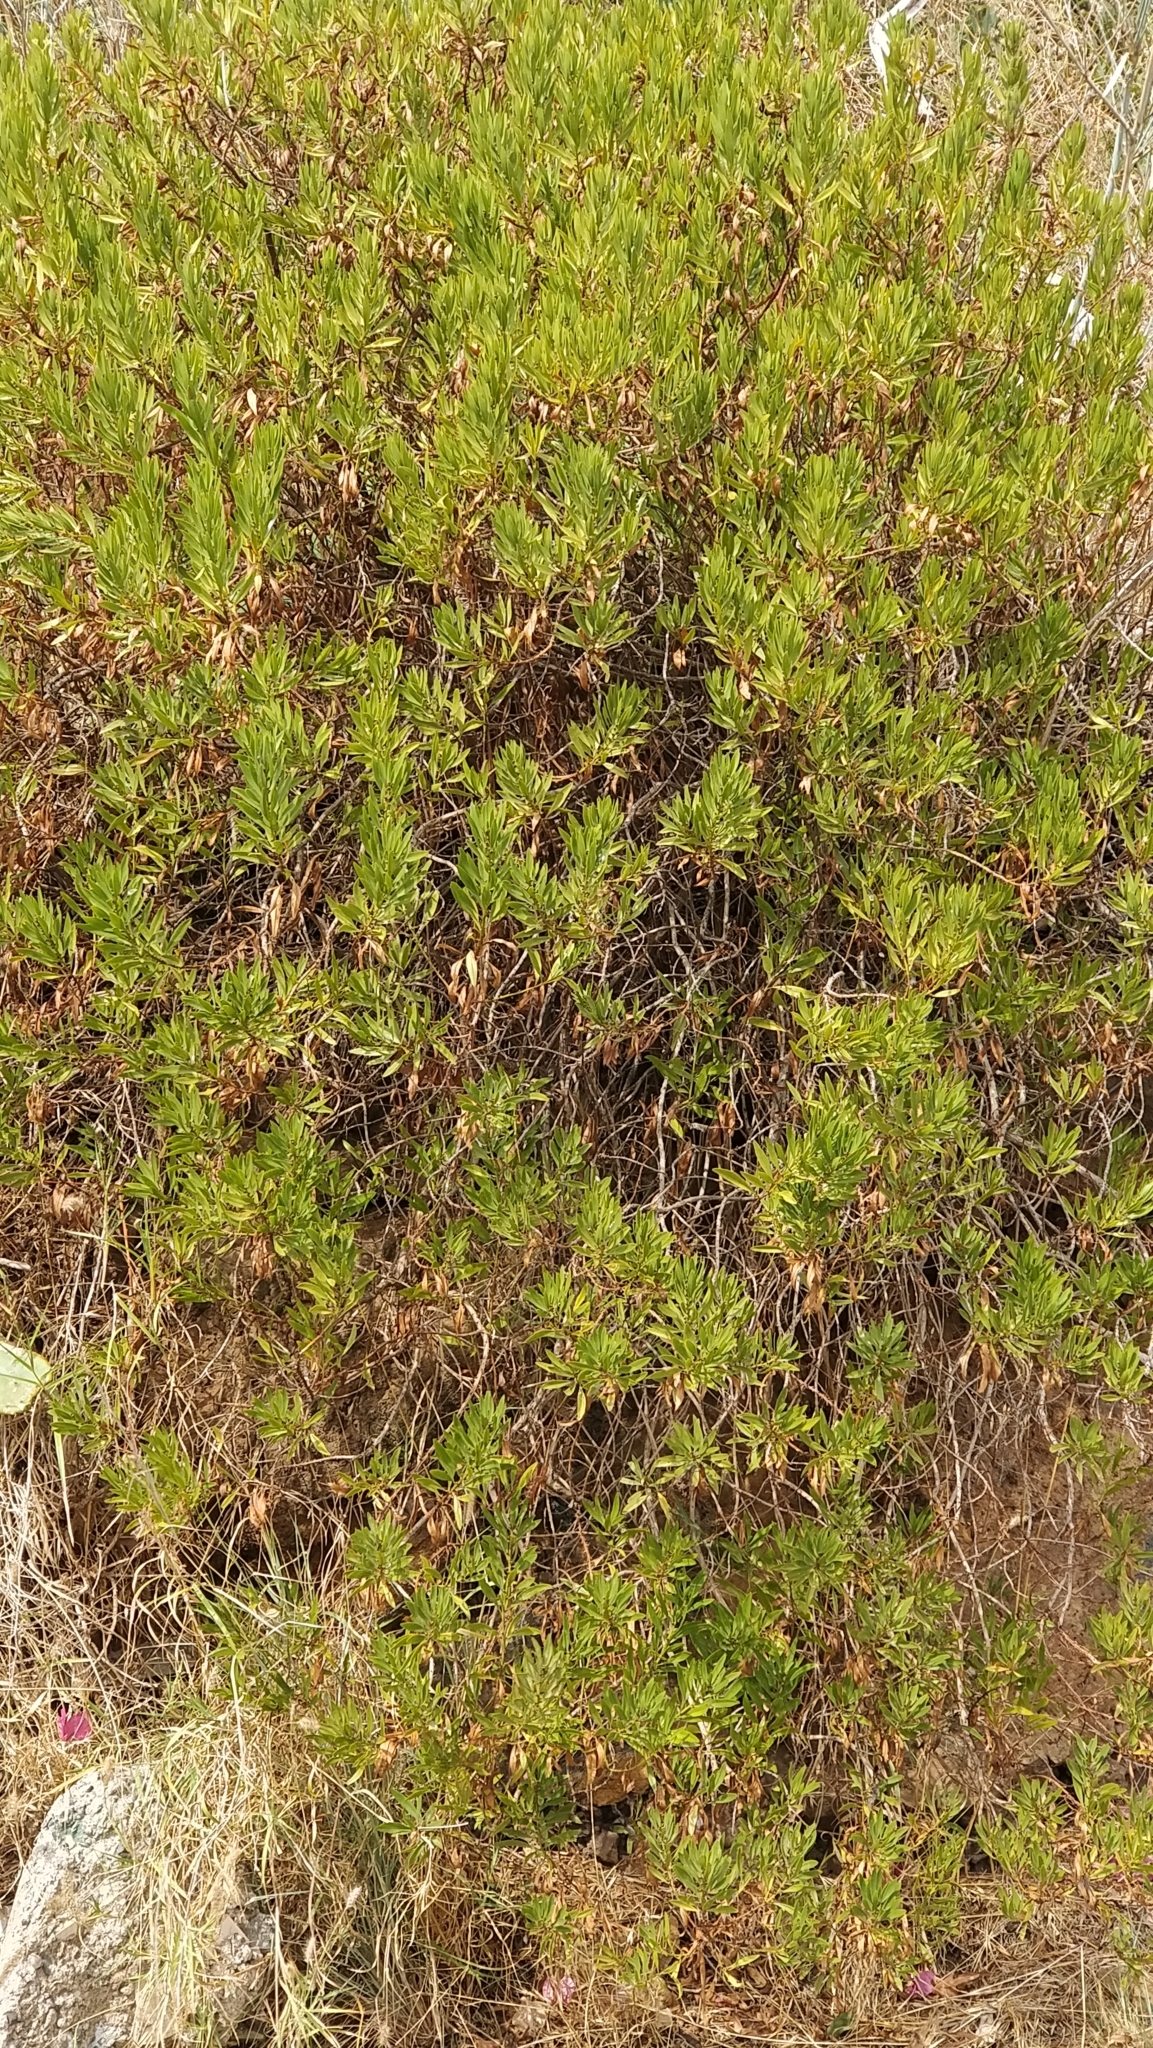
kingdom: Plantae
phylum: Tracheophyta
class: Magnoliopsida
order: Lamiales
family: Plantaginaceae
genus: Globularia
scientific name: Globularia salicina
